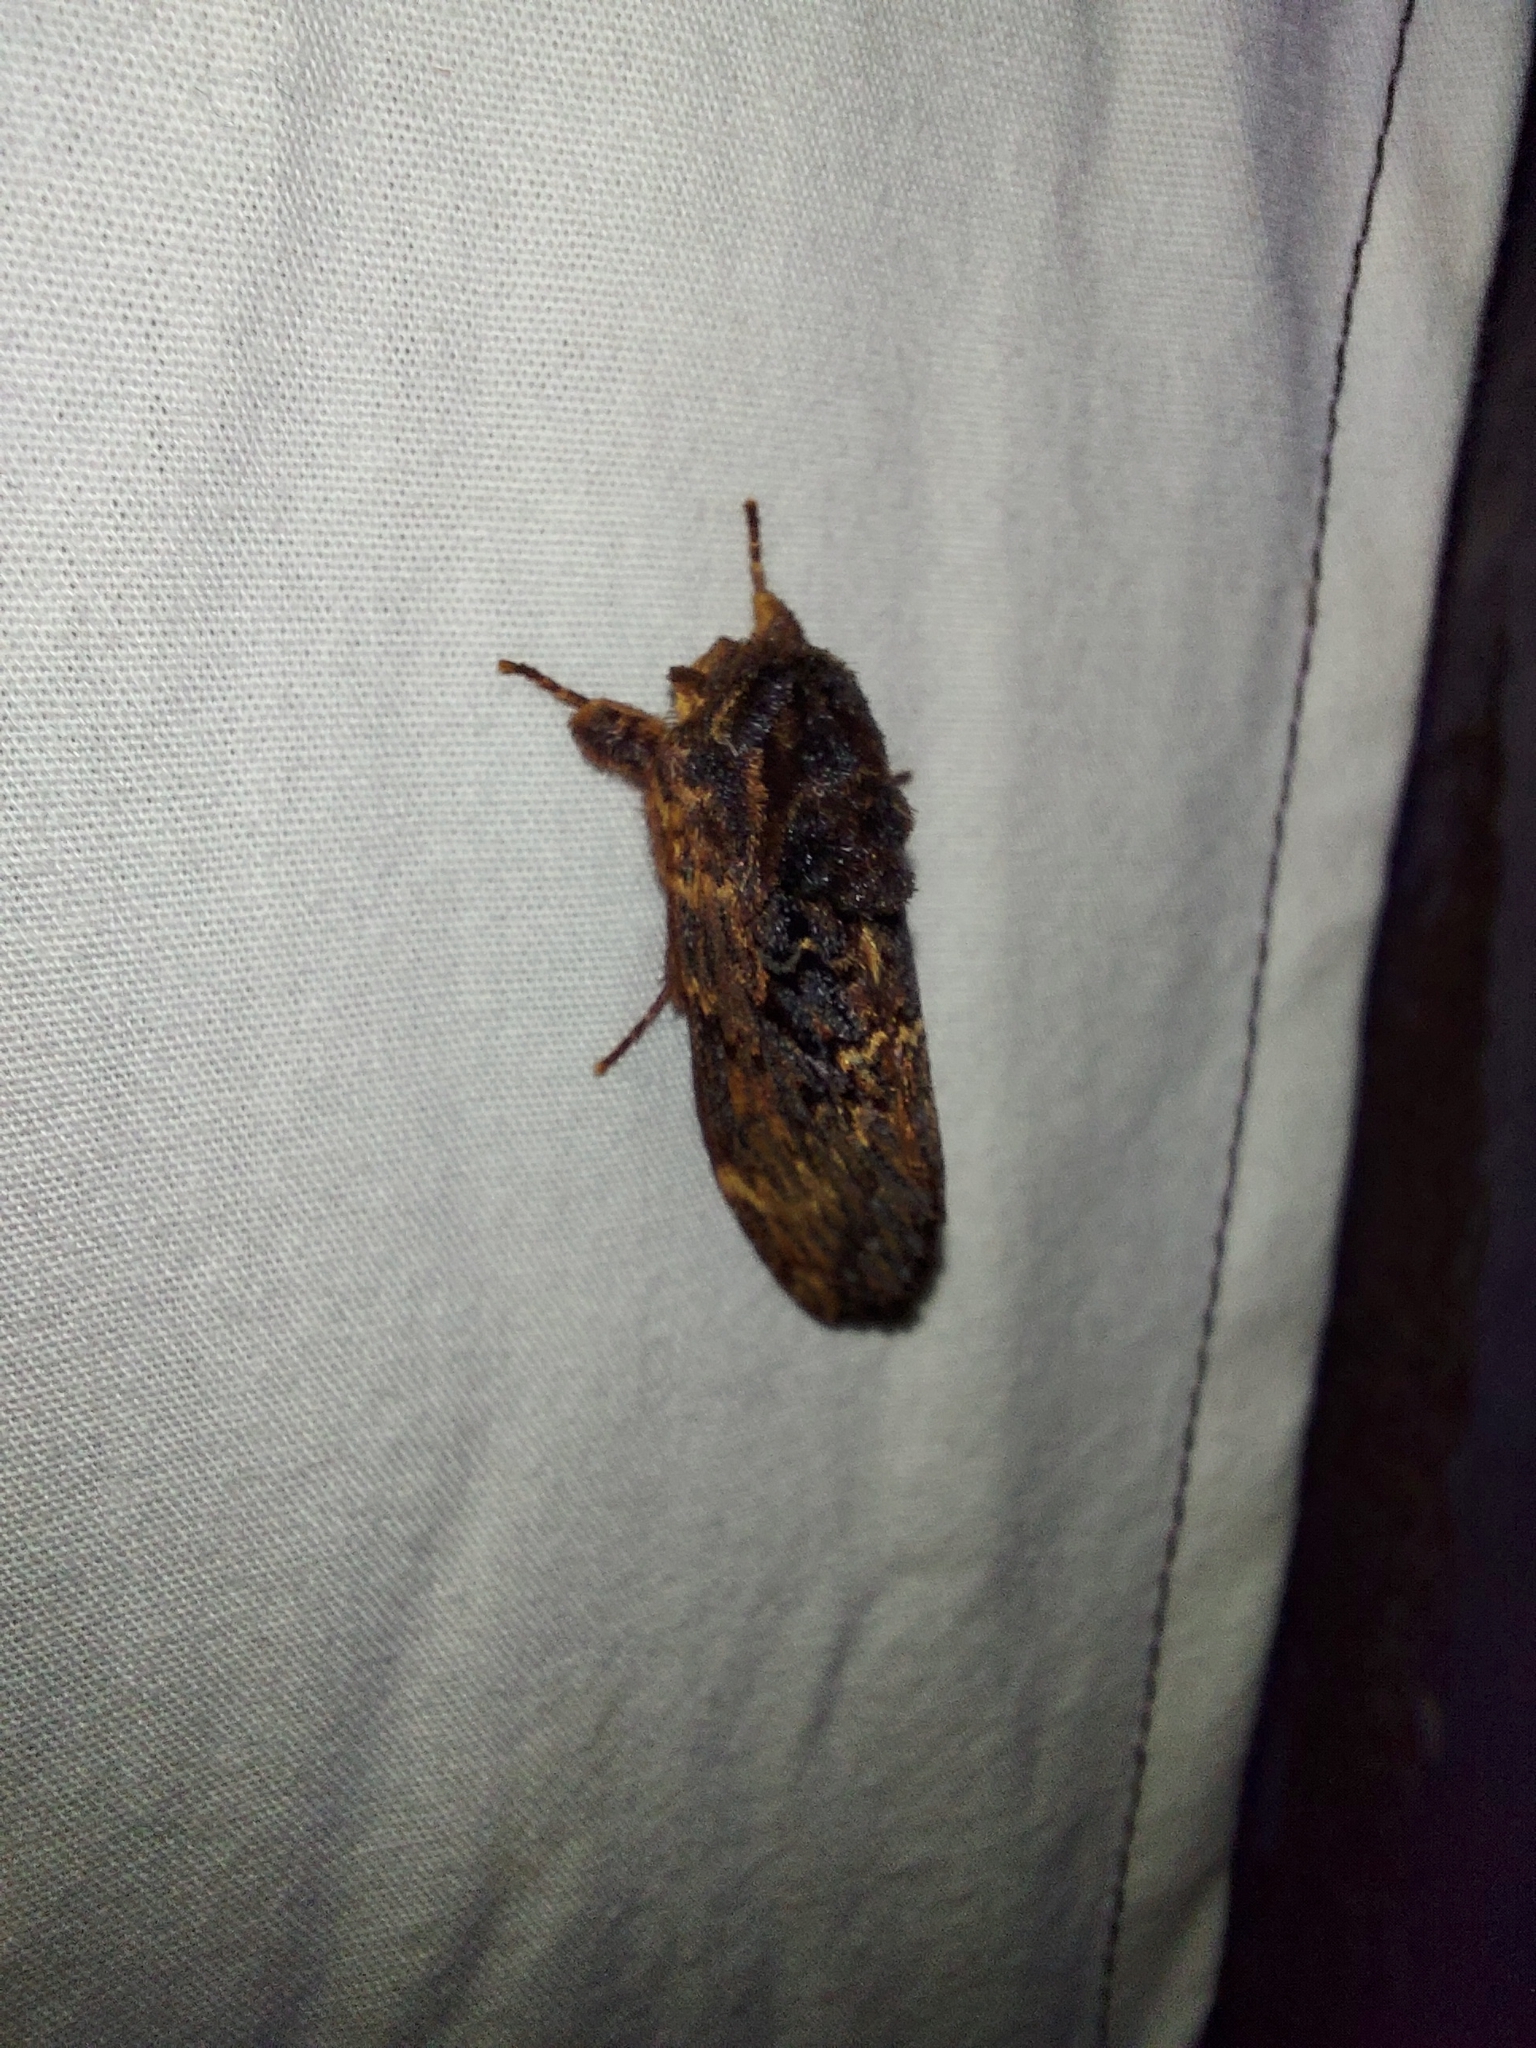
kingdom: Animalia
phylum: Arthropoda
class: Insecta
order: Lepidoptera
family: Notodontidae
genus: Sorama
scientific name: Sorama bicolor
